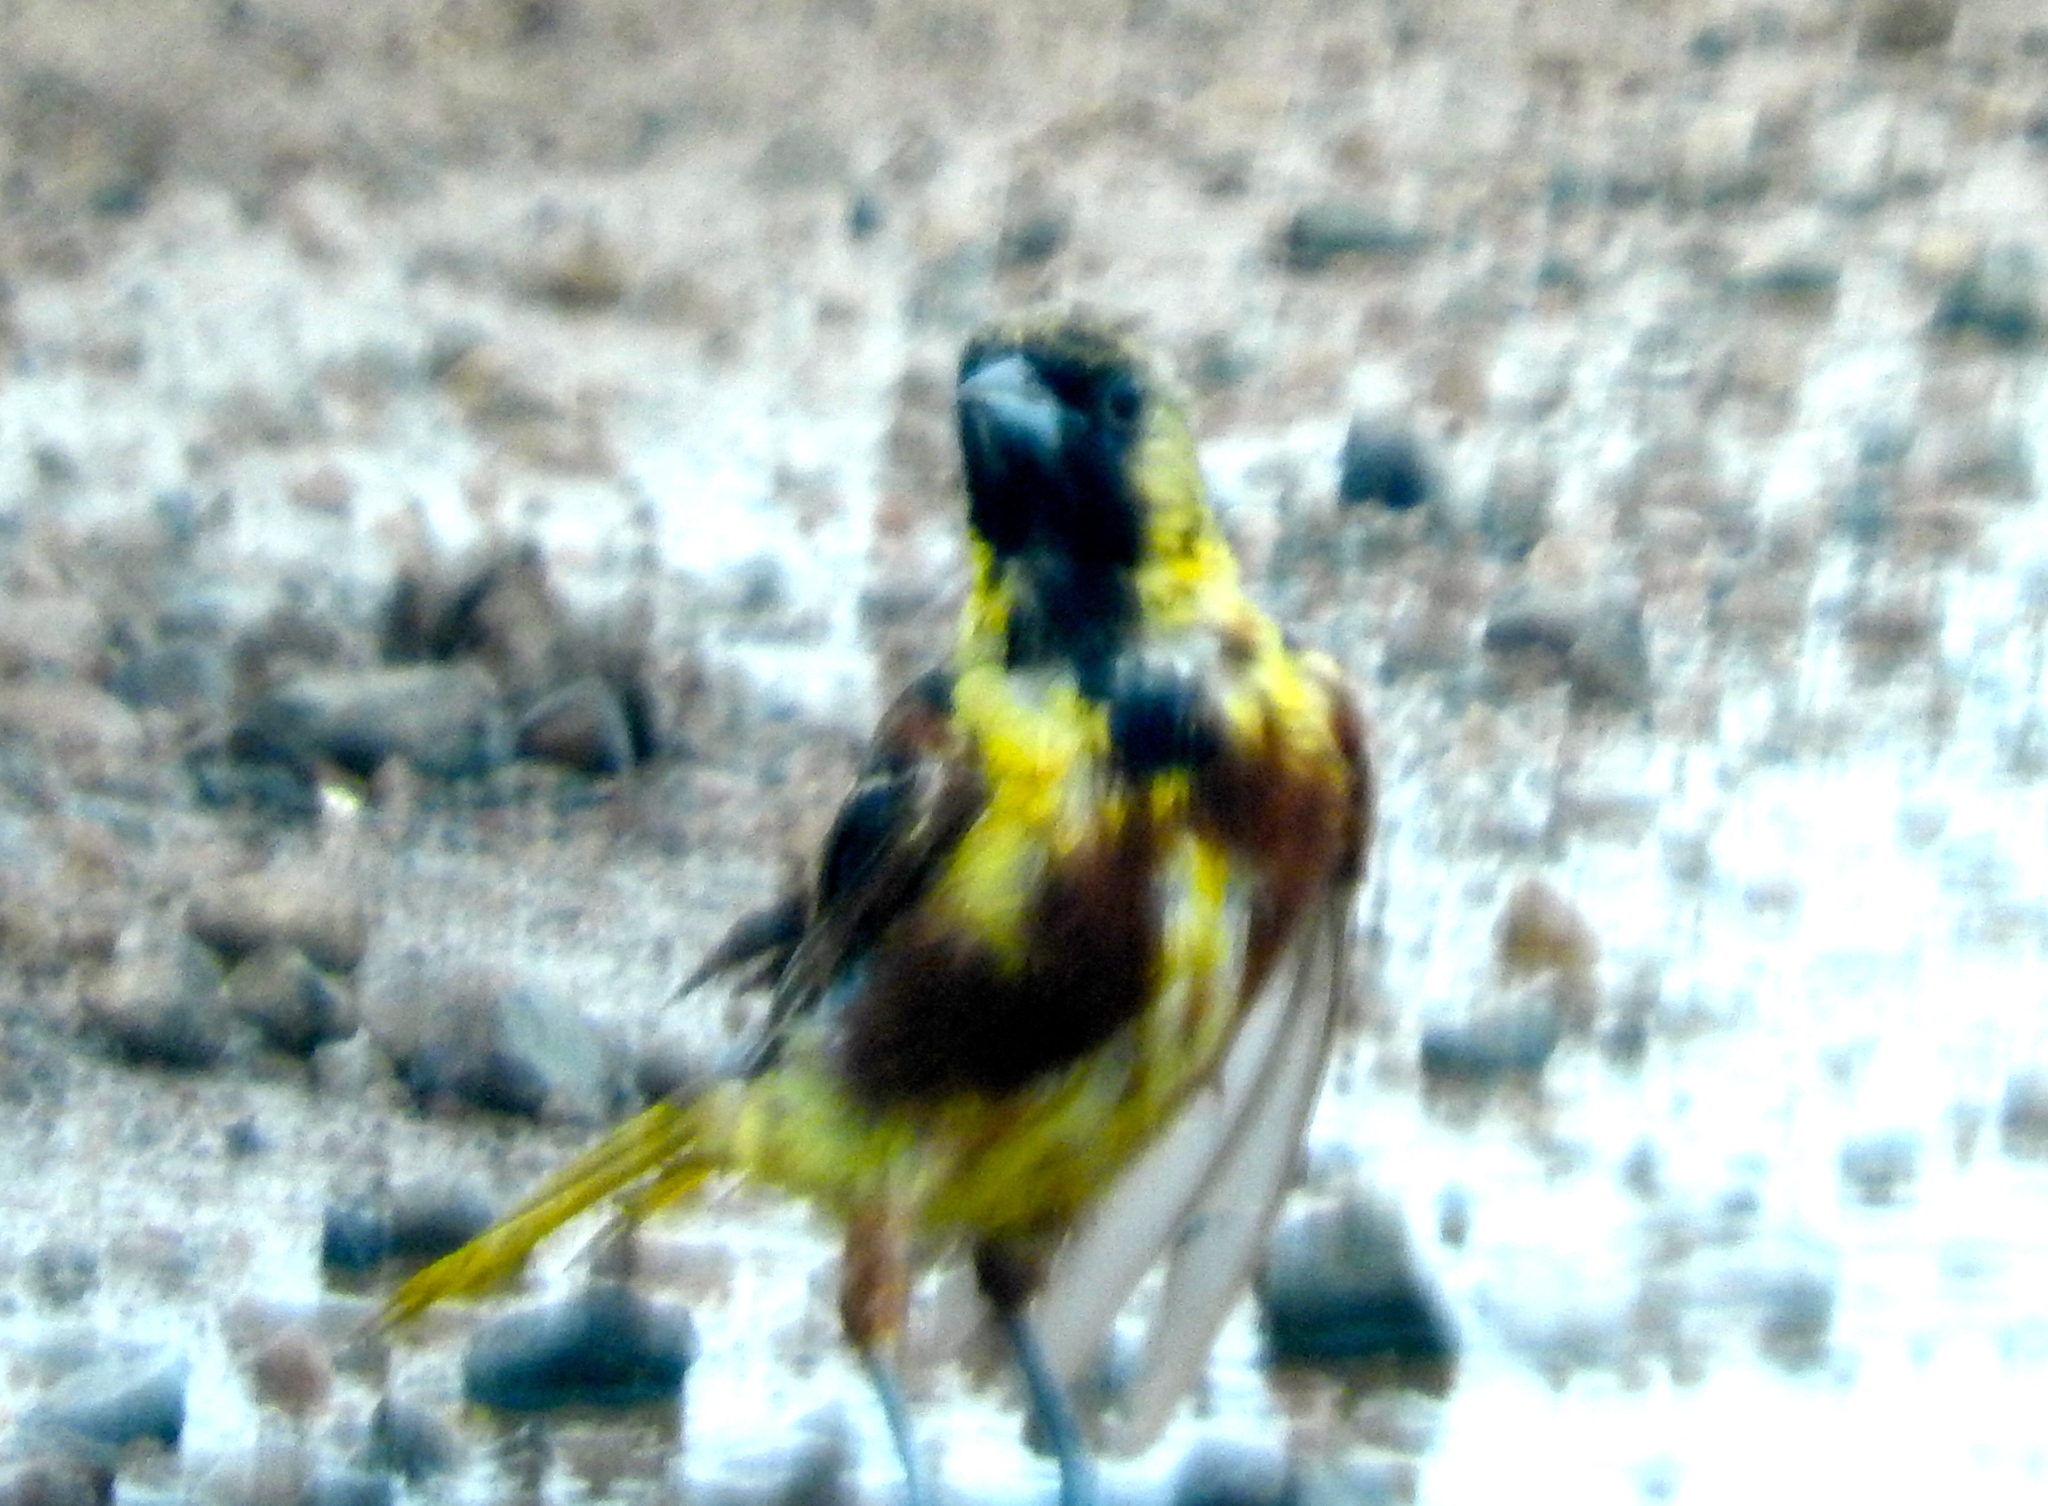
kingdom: Animalia
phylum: Chordata
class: Aves
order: Passeriformes
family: Icteridae
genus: Icterus
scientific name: Icterus spurius
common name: Orchard oriole
